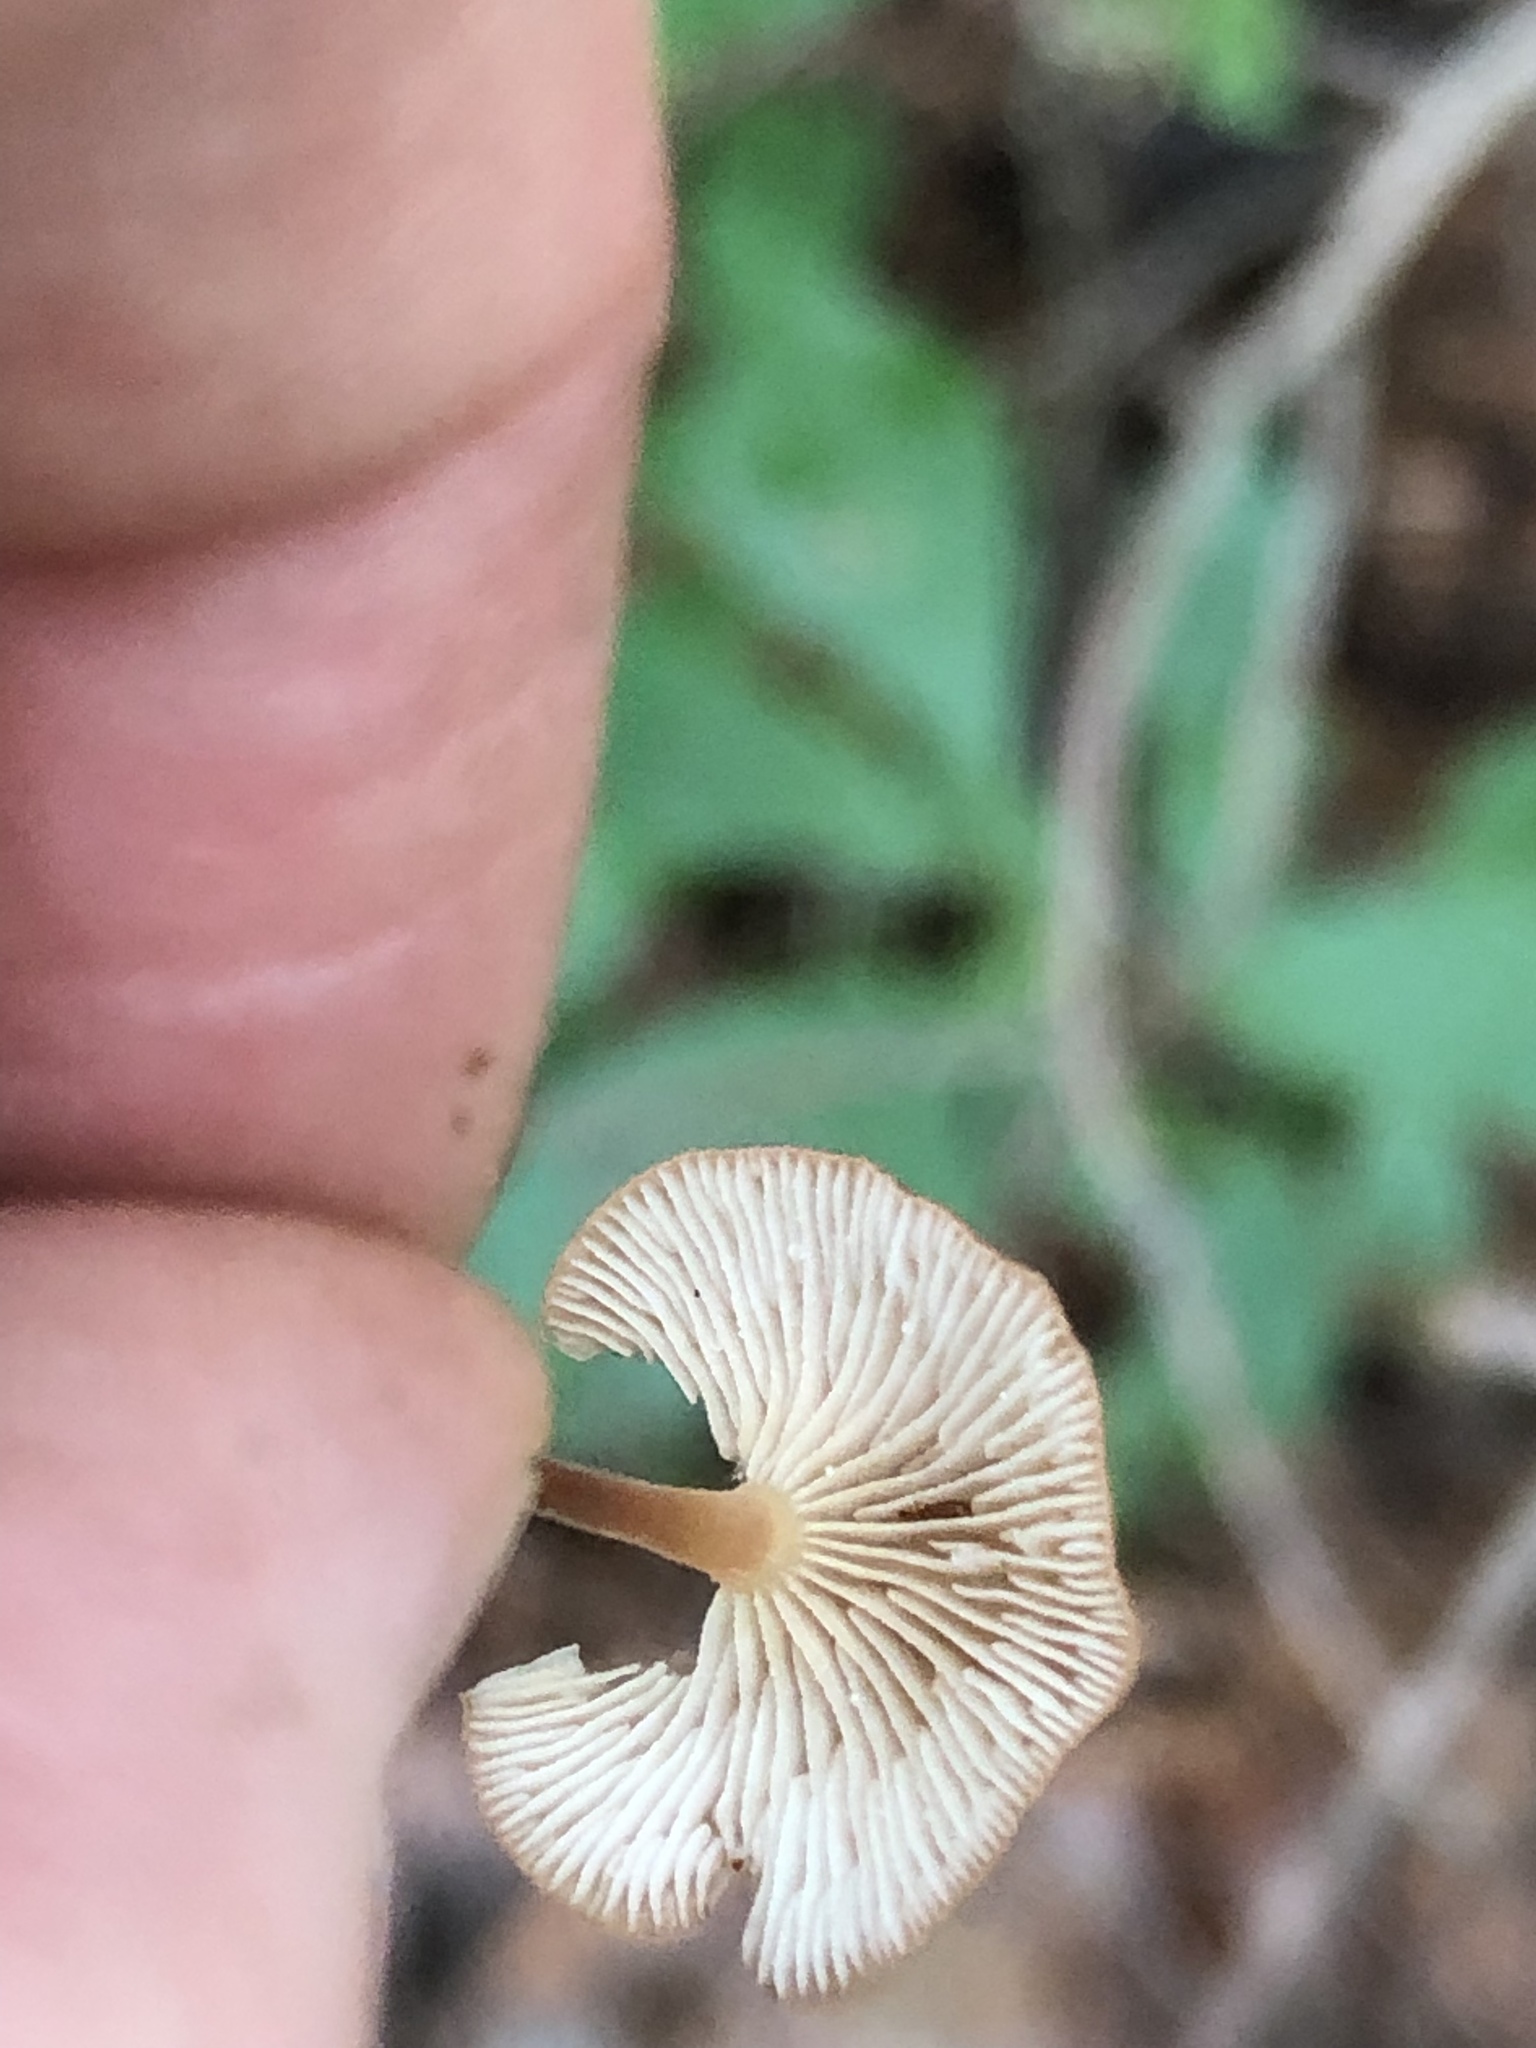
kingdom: Fungi
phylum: Basidiomycota
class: Agaricomycetes
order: Agaricales
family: Omphalotaceae
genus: Collybiopsis
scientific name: Collybiopsis subnuda
